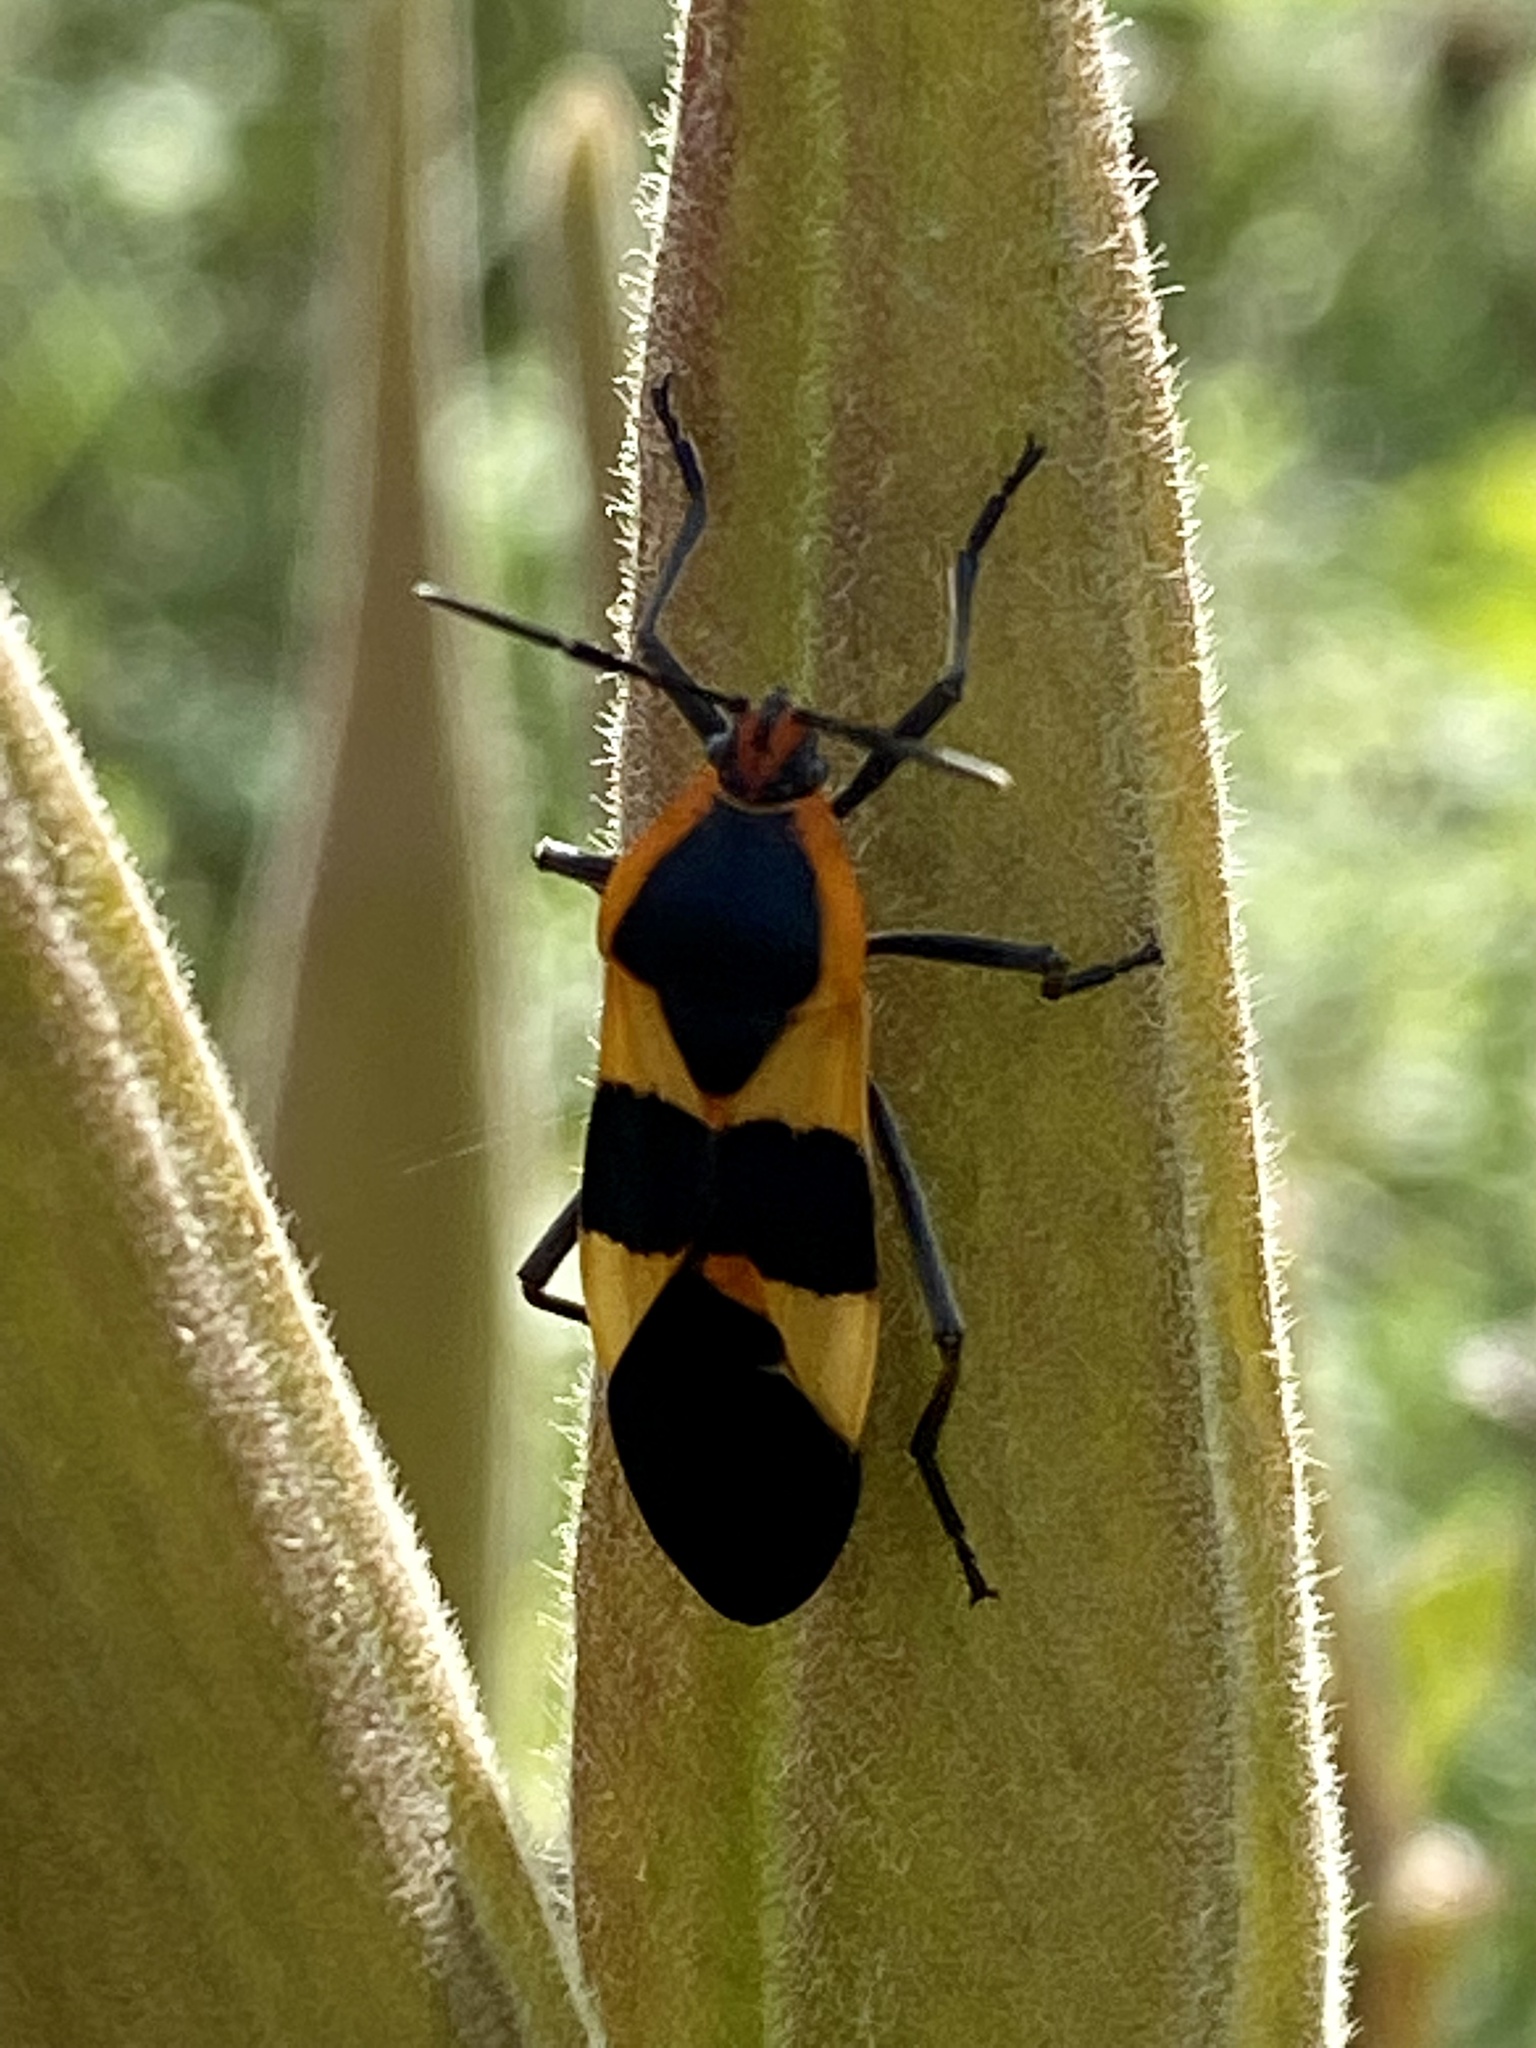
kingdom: Animalia
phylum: Arthropoda
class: Insecta
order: Hemiptera
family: Lygaeidae
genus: Oncopeltus
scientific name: Oncopeltus fasciatus
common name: Large milkweed bug
